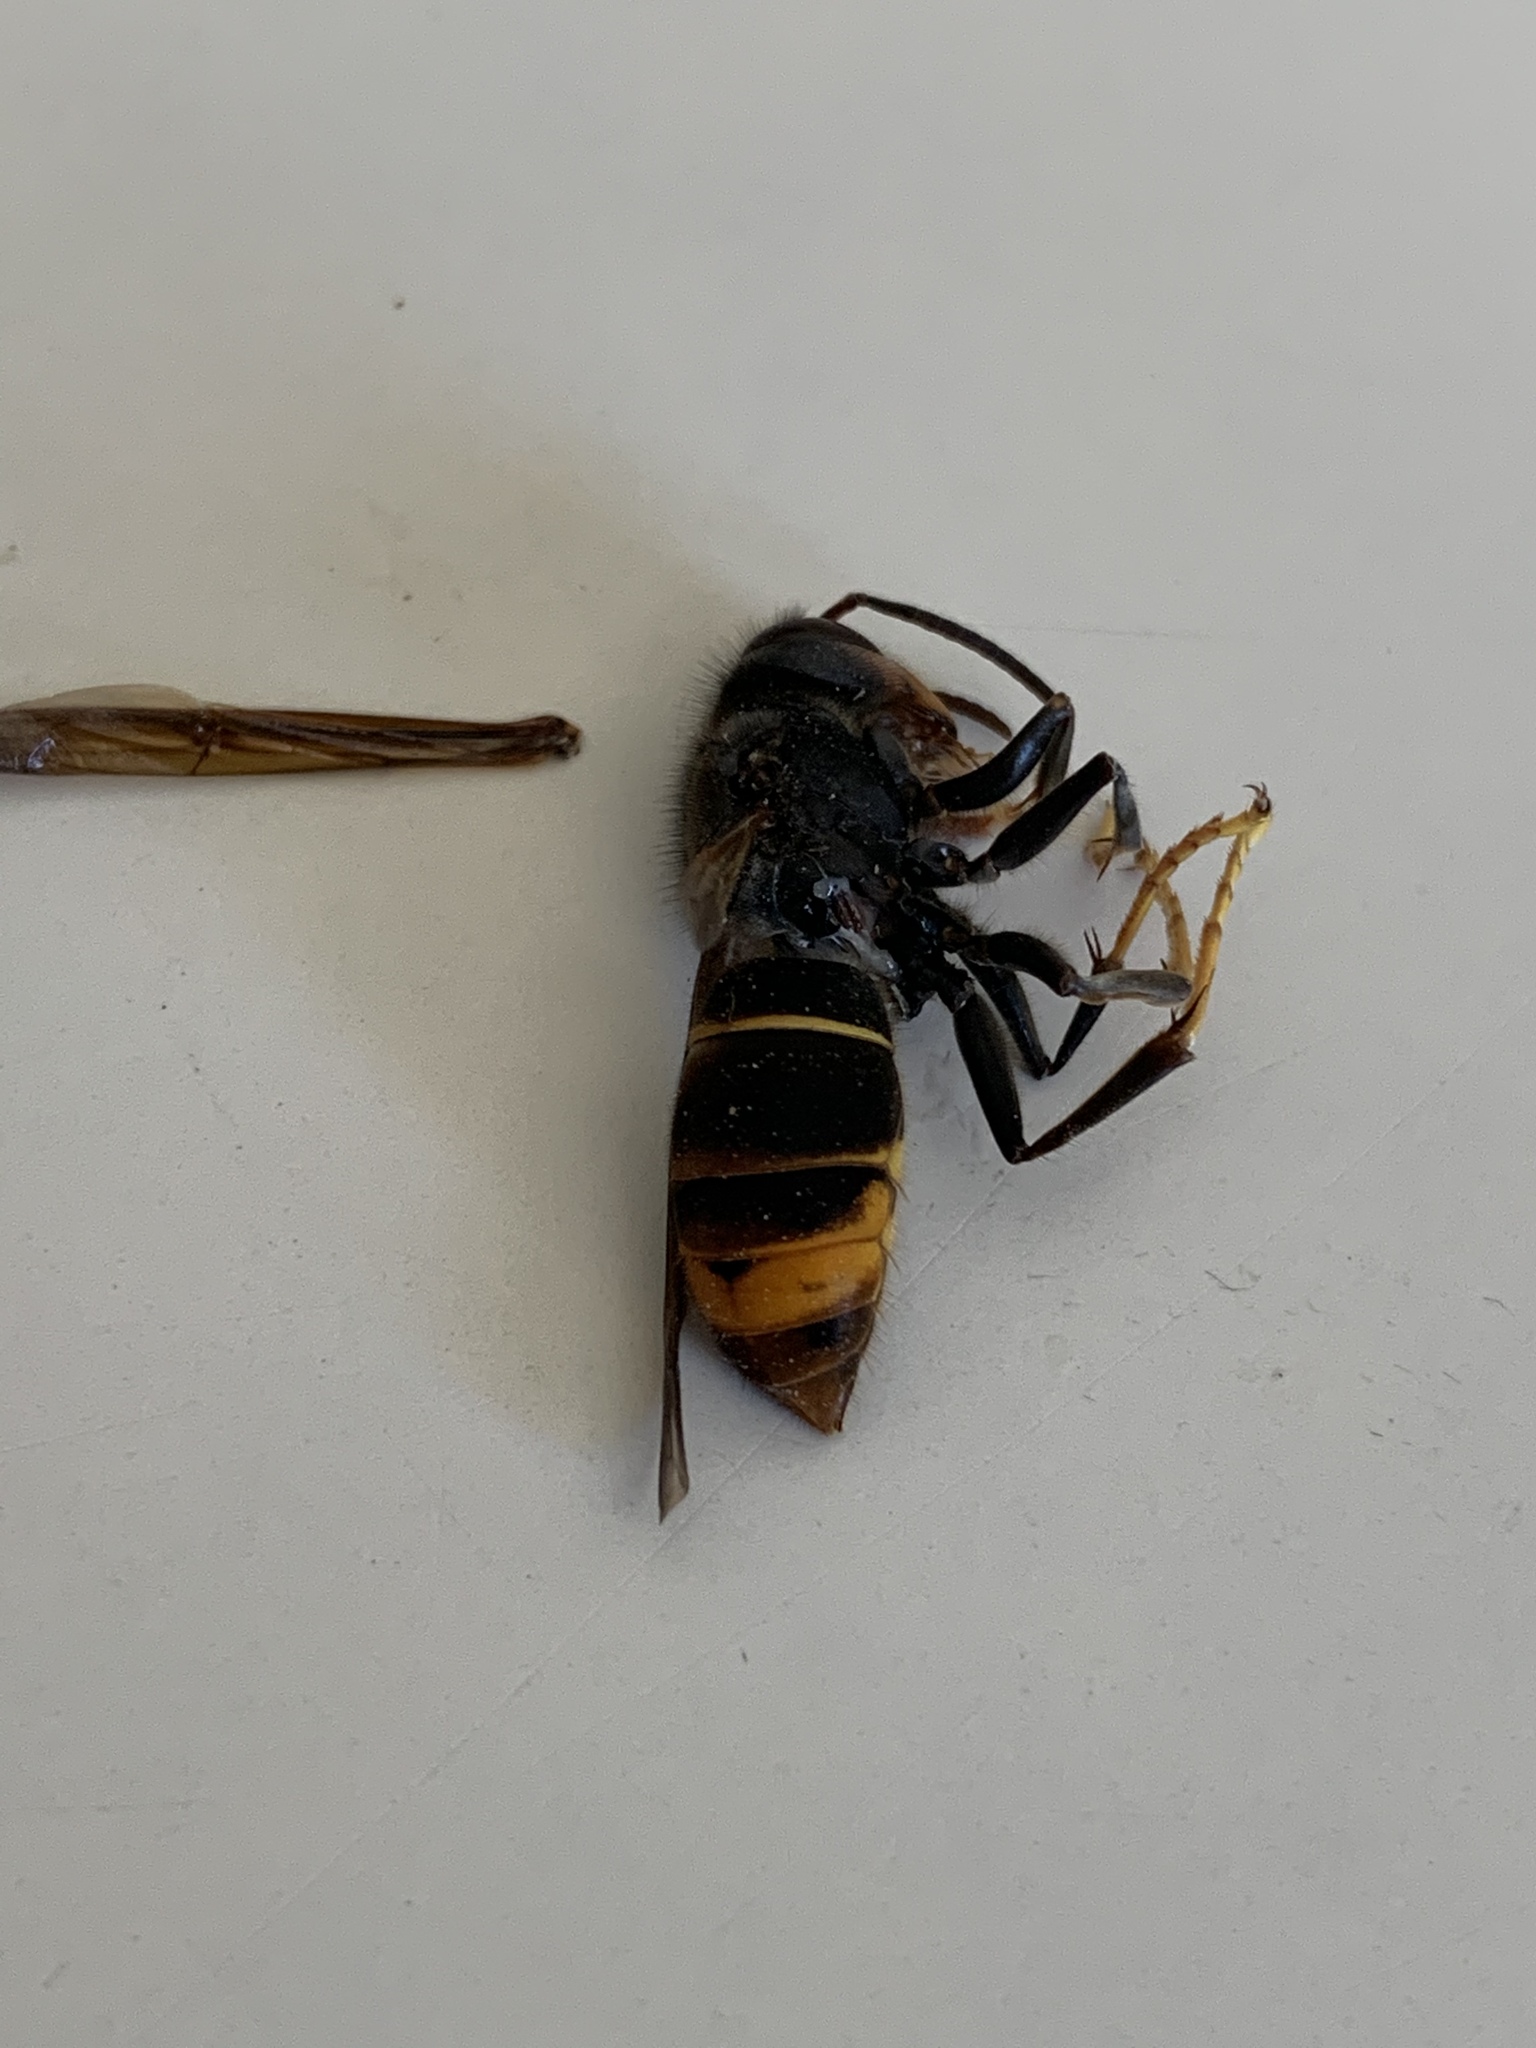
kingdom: Animalia
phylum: Arthropoda
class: Insecta
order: Hymenoptera
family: Vespidae
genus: Vespa
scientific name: Vespa velutina
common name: Asian hornet
